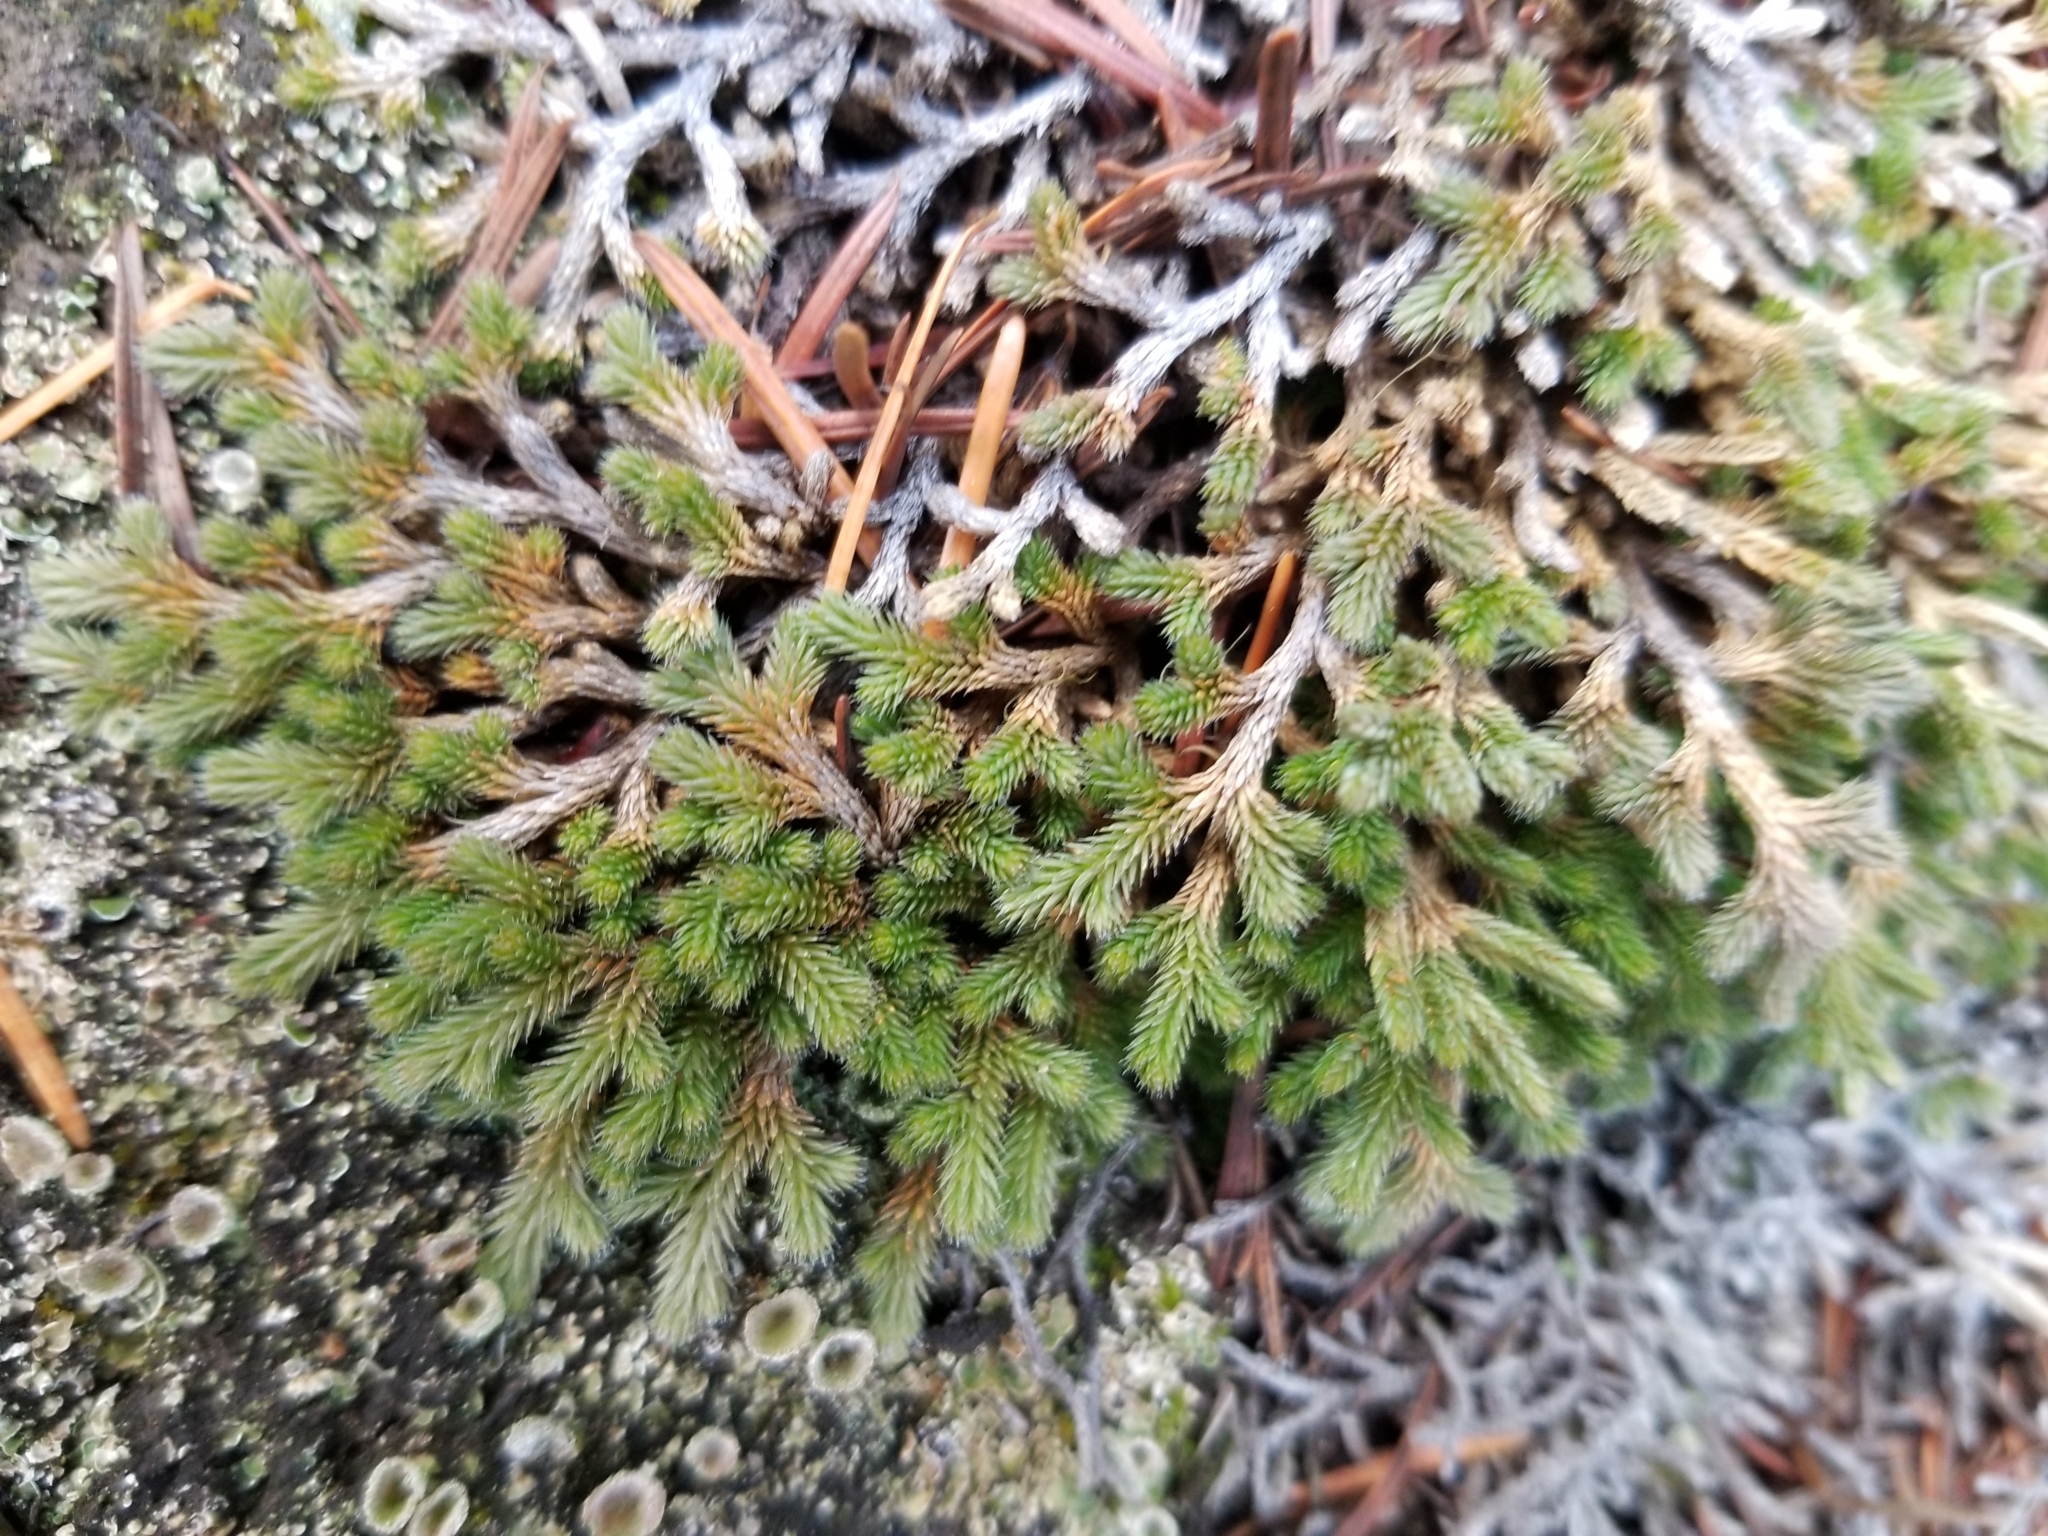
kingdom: Plantae
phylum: Tracheophyta
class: Lycopodiopsida
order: Selaginellales
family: Selaginellaceae
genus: Selaginella
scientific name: Selaginella wallacei
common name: Wallace's selaginella
